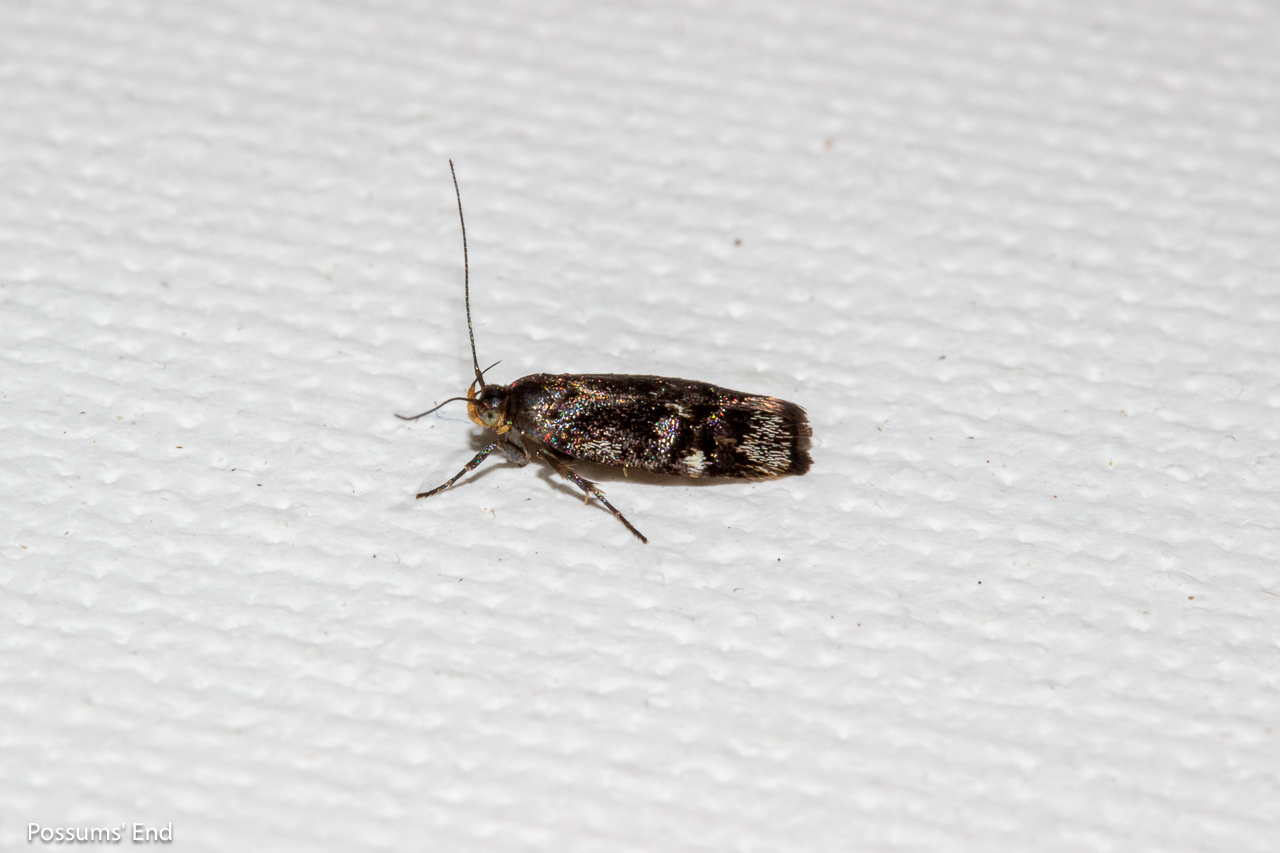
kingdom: Animalia
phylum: Arthropoda
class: Insecta
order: Lepidoptera
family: Oecophoridae
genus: Hierodoris
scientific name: Hierodoris frigida
